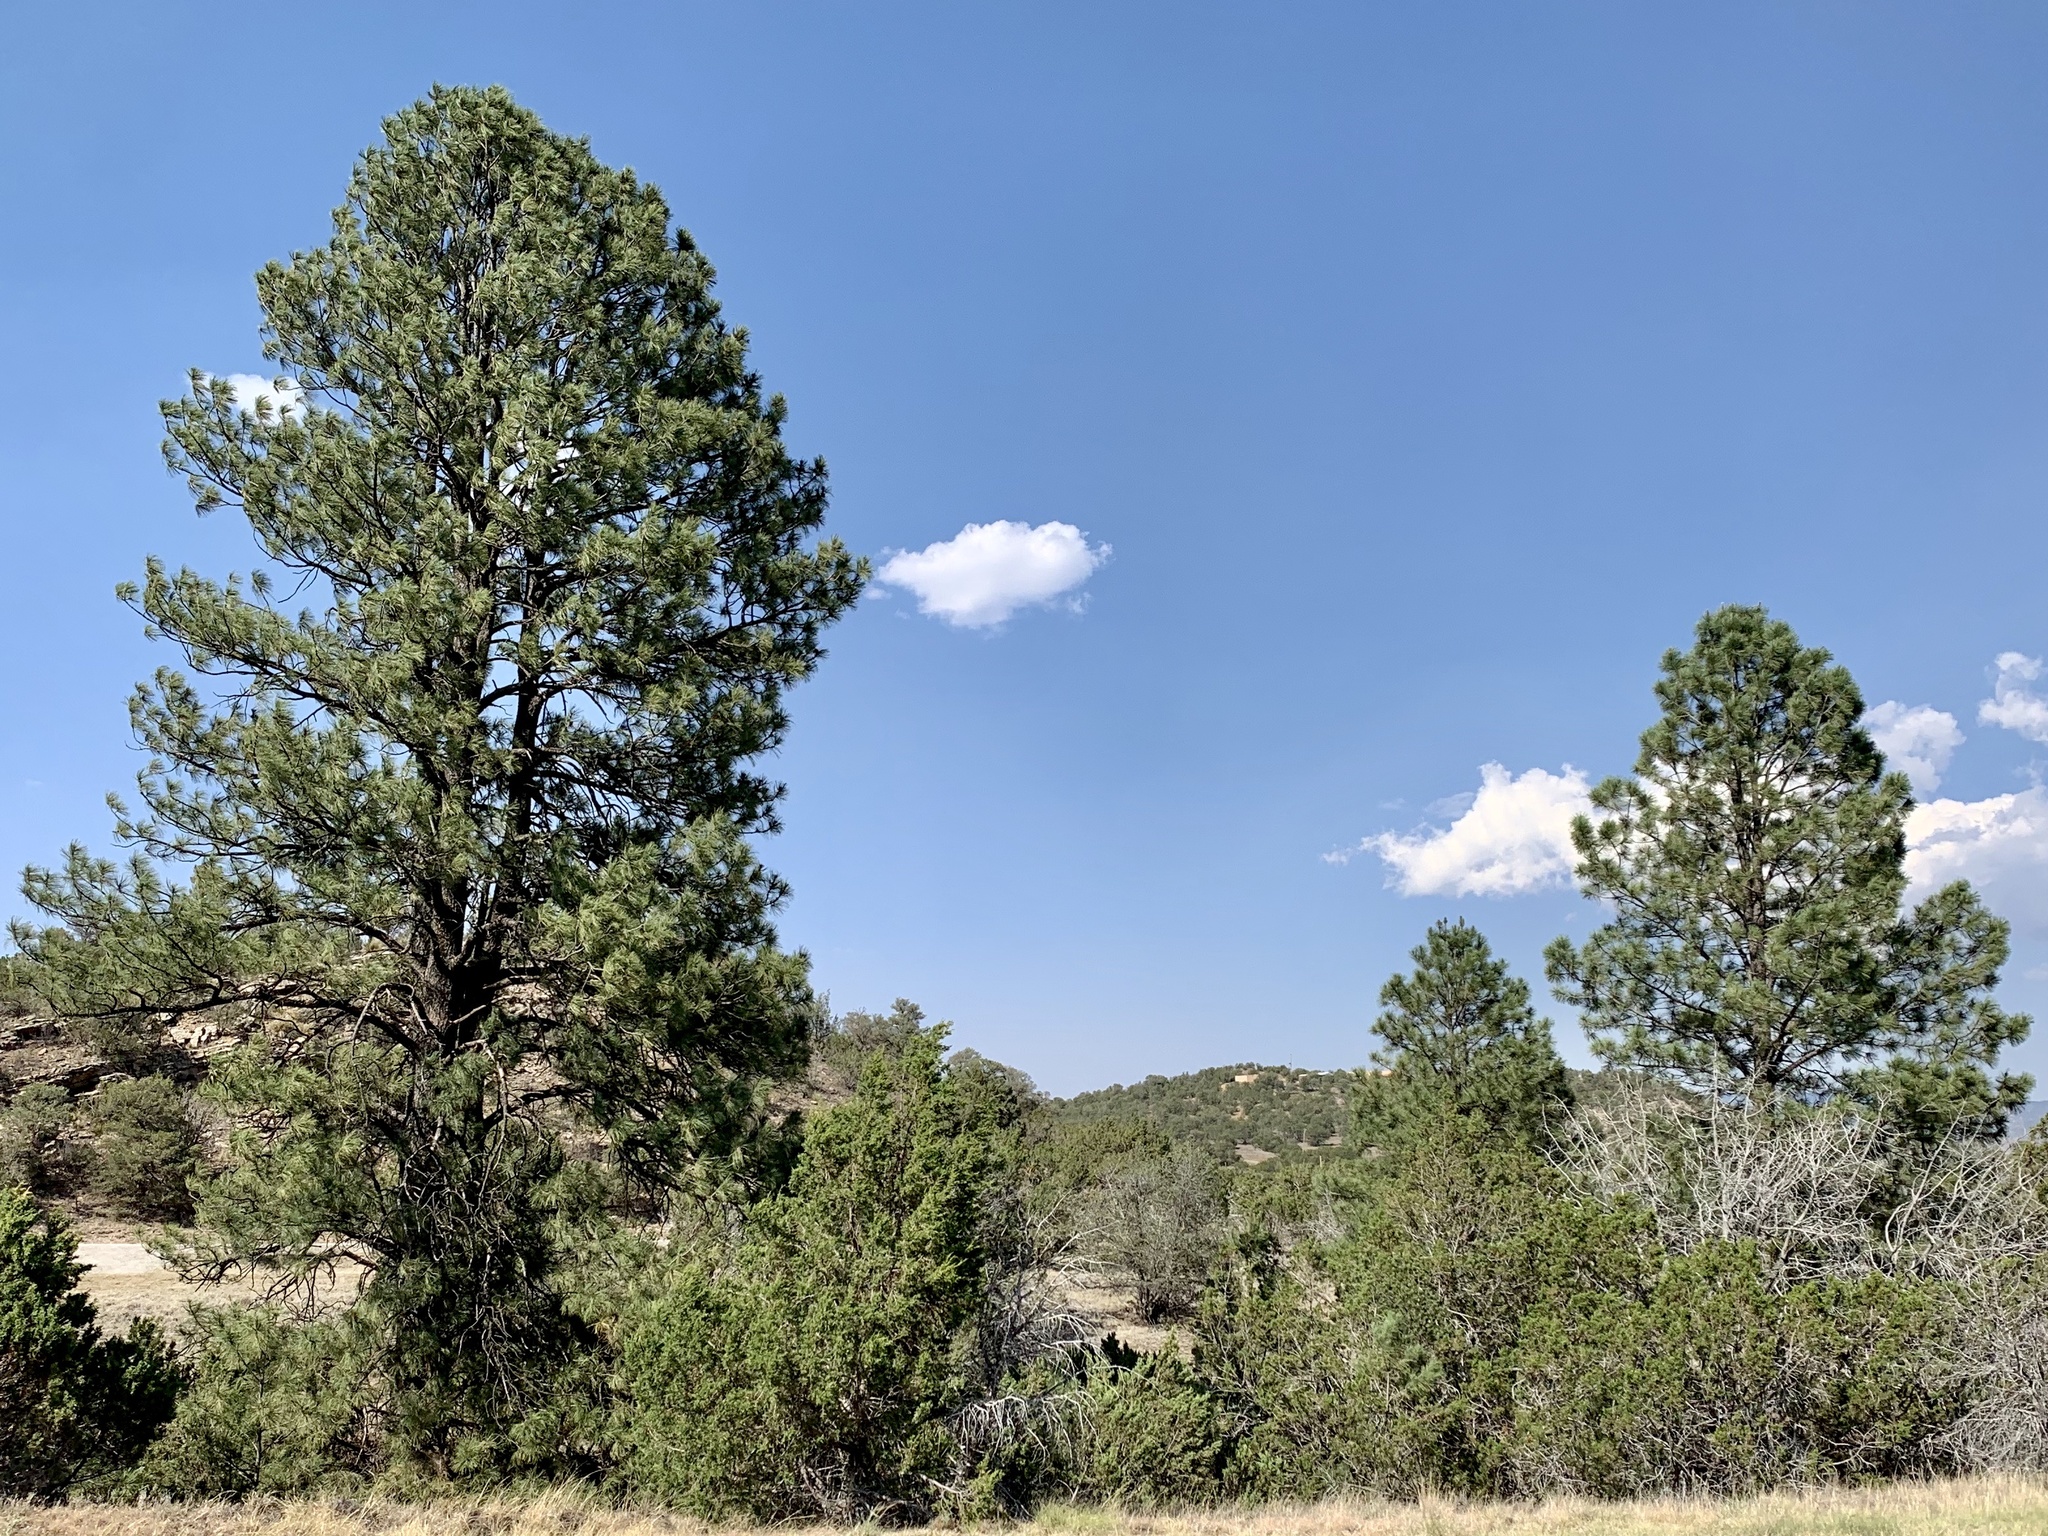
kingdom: Plantae
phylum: Tracheophyta
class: Pinopsida
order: Pinales
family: Pinaceae
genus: Pinus
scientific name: Pinus ponderosa
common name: Western yellow-pine
